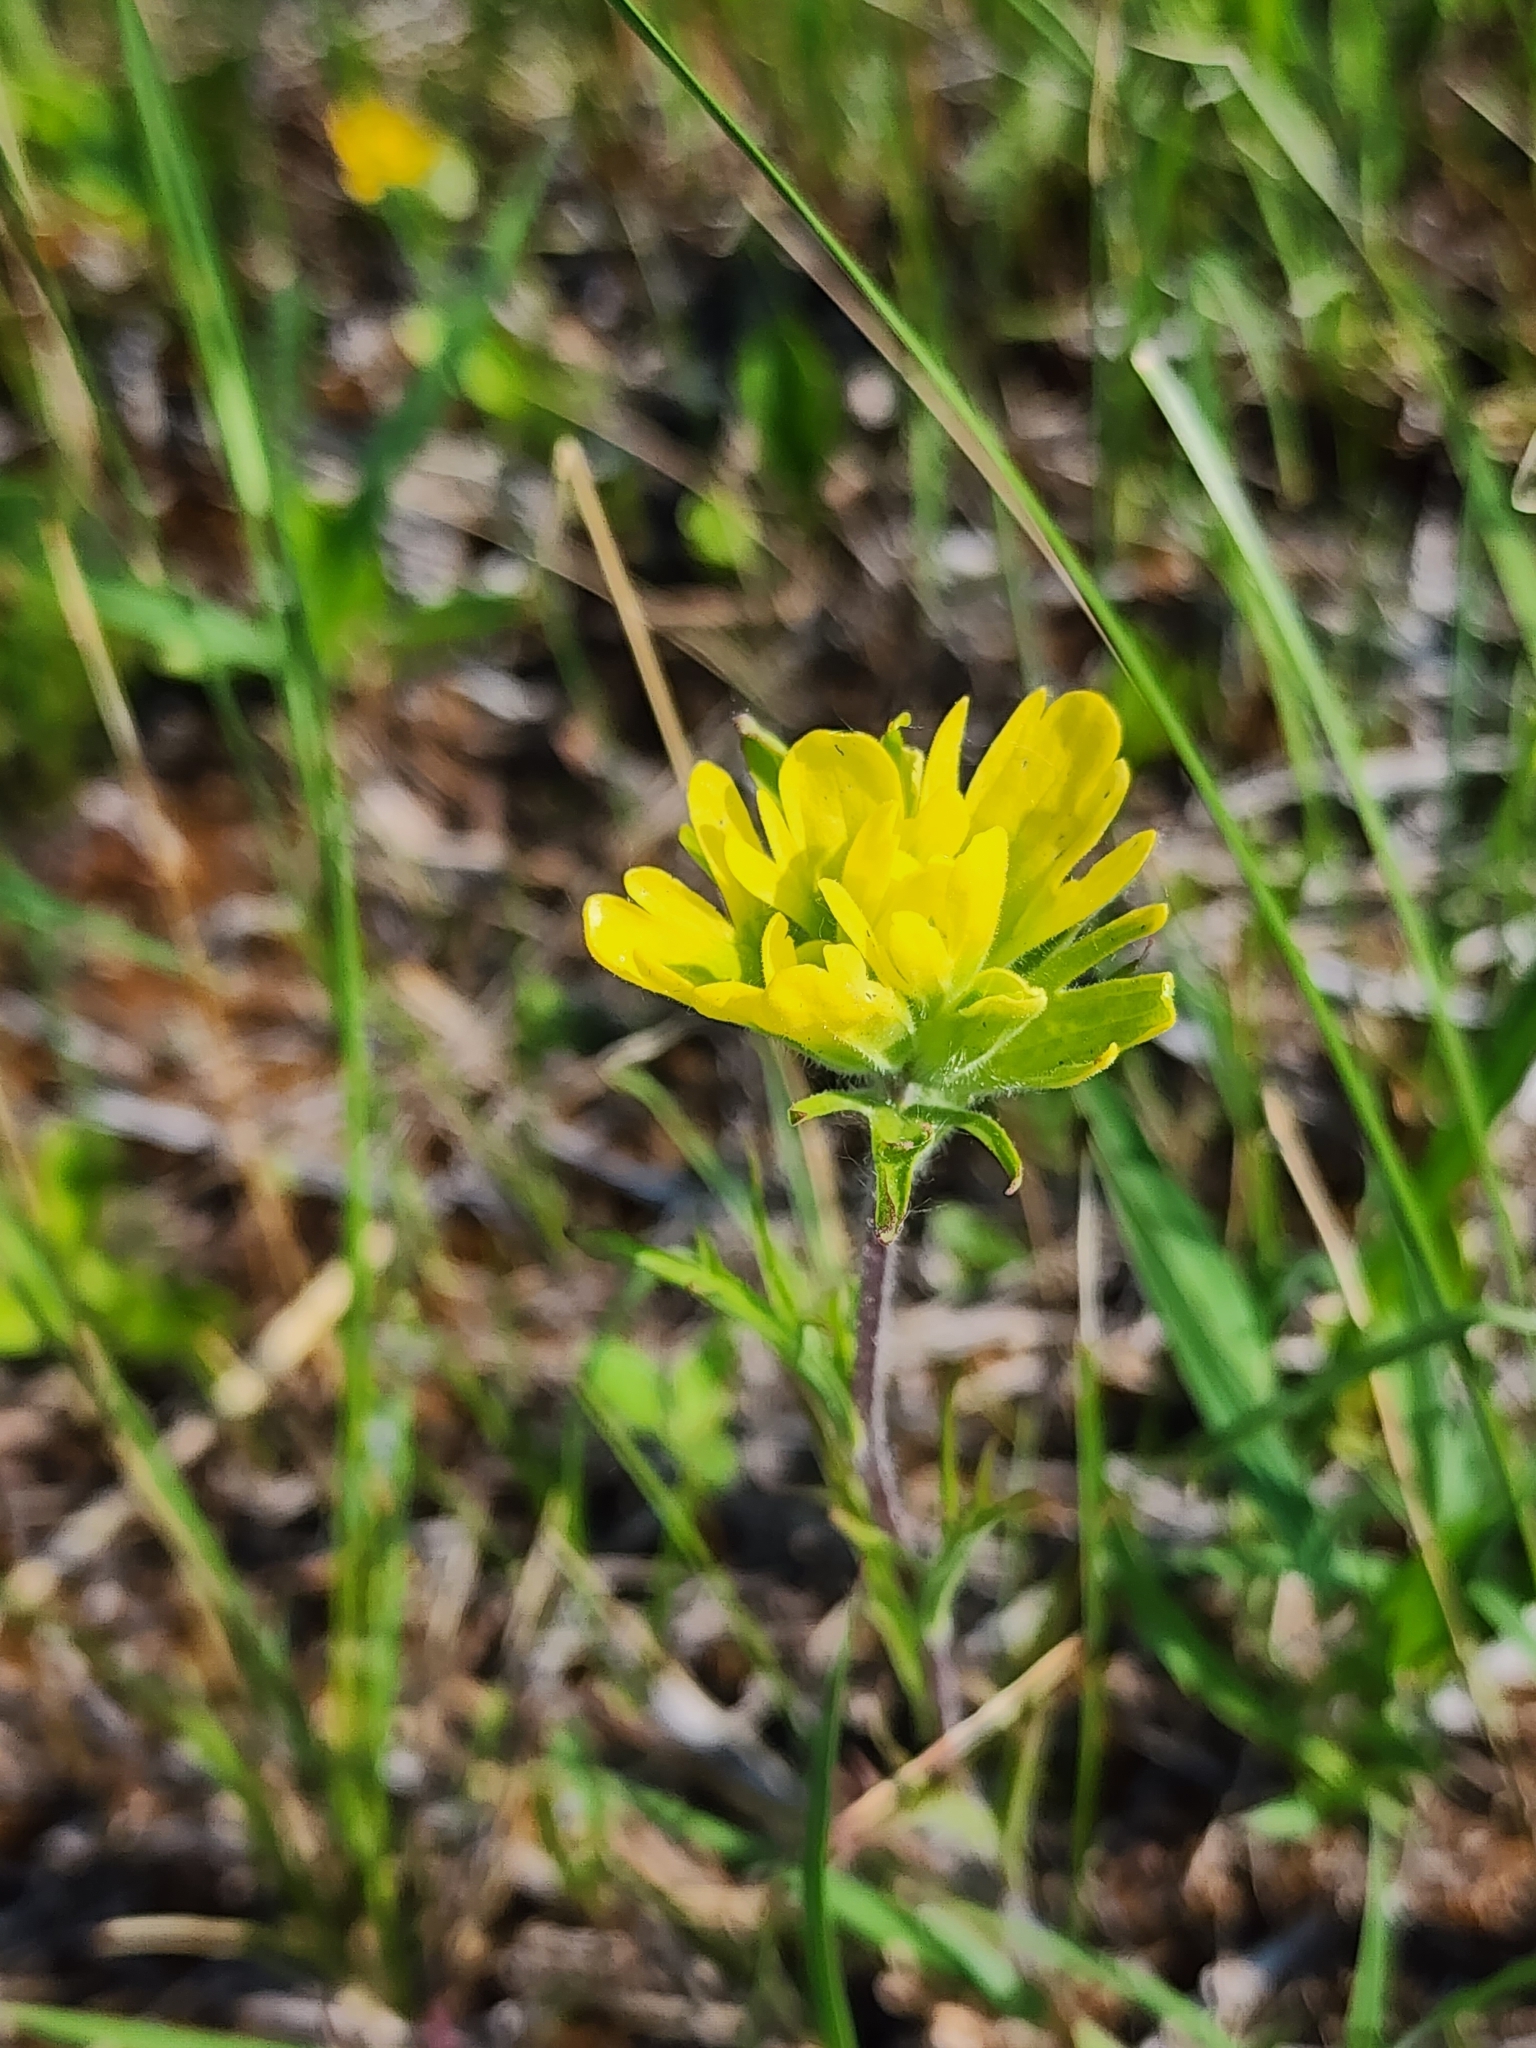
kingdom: Plantae
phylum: Tracheophyta
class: Magnoliopsida
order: Lamiales
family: Orobanchaceae
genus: Castilleja
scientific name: Castilleja coccinea
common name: Scarlet paintbrush
